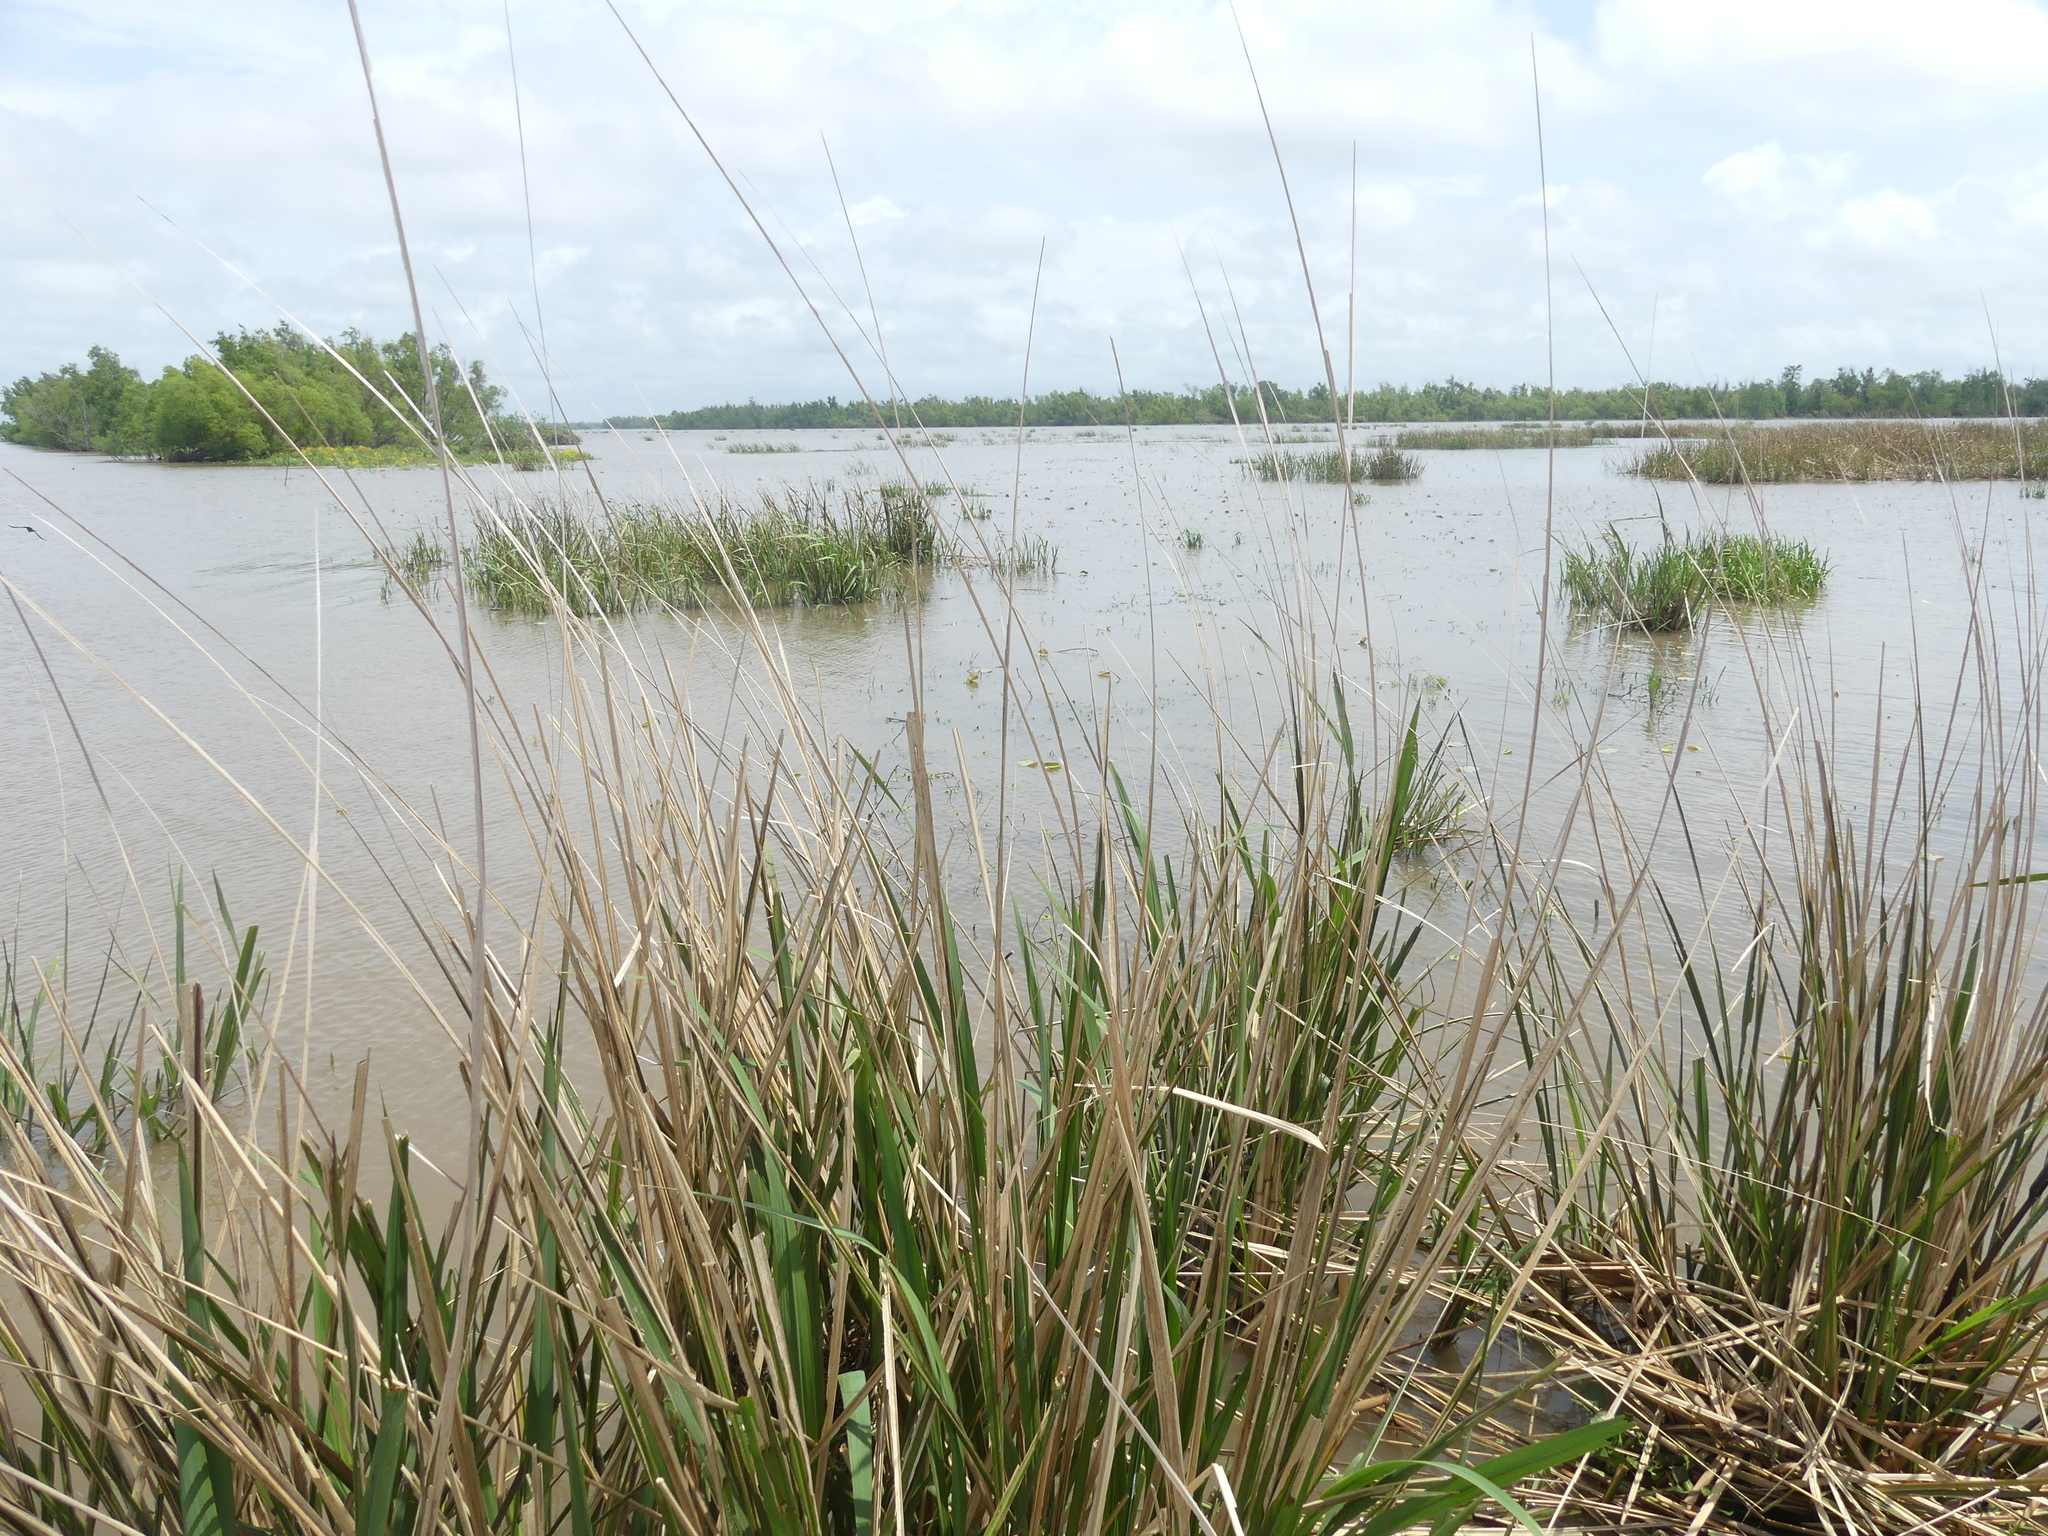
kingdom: Animalia
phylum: Chordata
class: Aves
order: Passeriformes
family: Icteridae
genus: Quiscalus
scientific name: Quiscalus major
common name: Boat-tailed grackle
